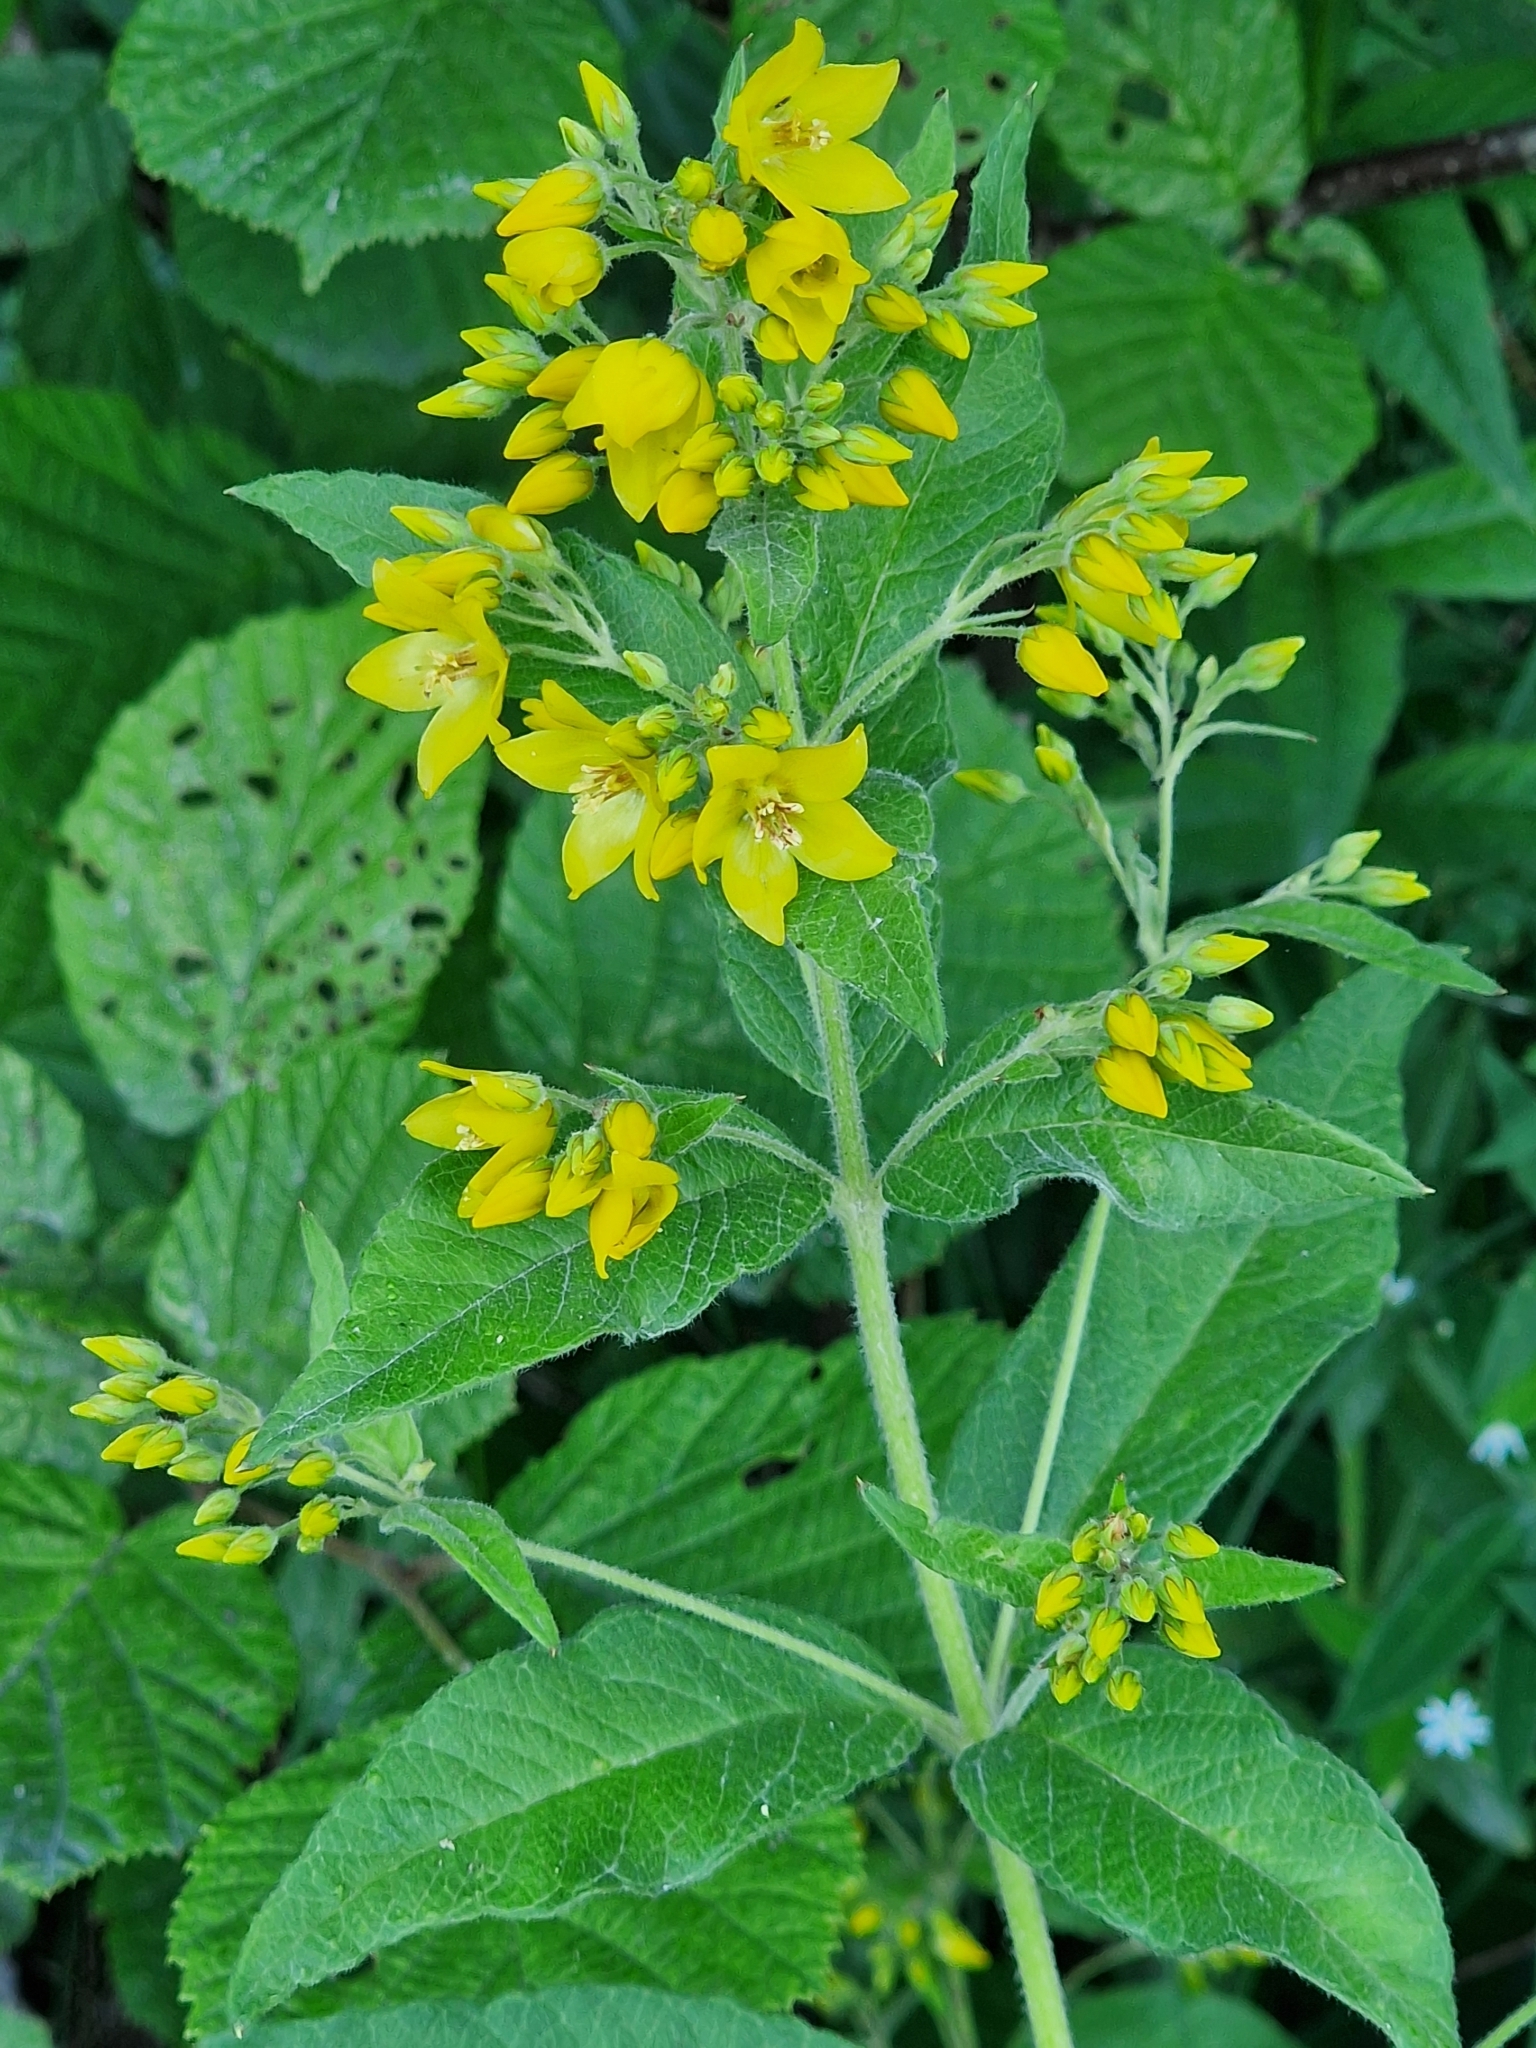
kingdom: Plantae
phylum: Tracheophyta
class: Magnoliopsida
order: Ericales
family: Primulaceae
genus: Lysimachia
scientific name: Lysimachia vulgaris
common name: Yellow loosestrife
